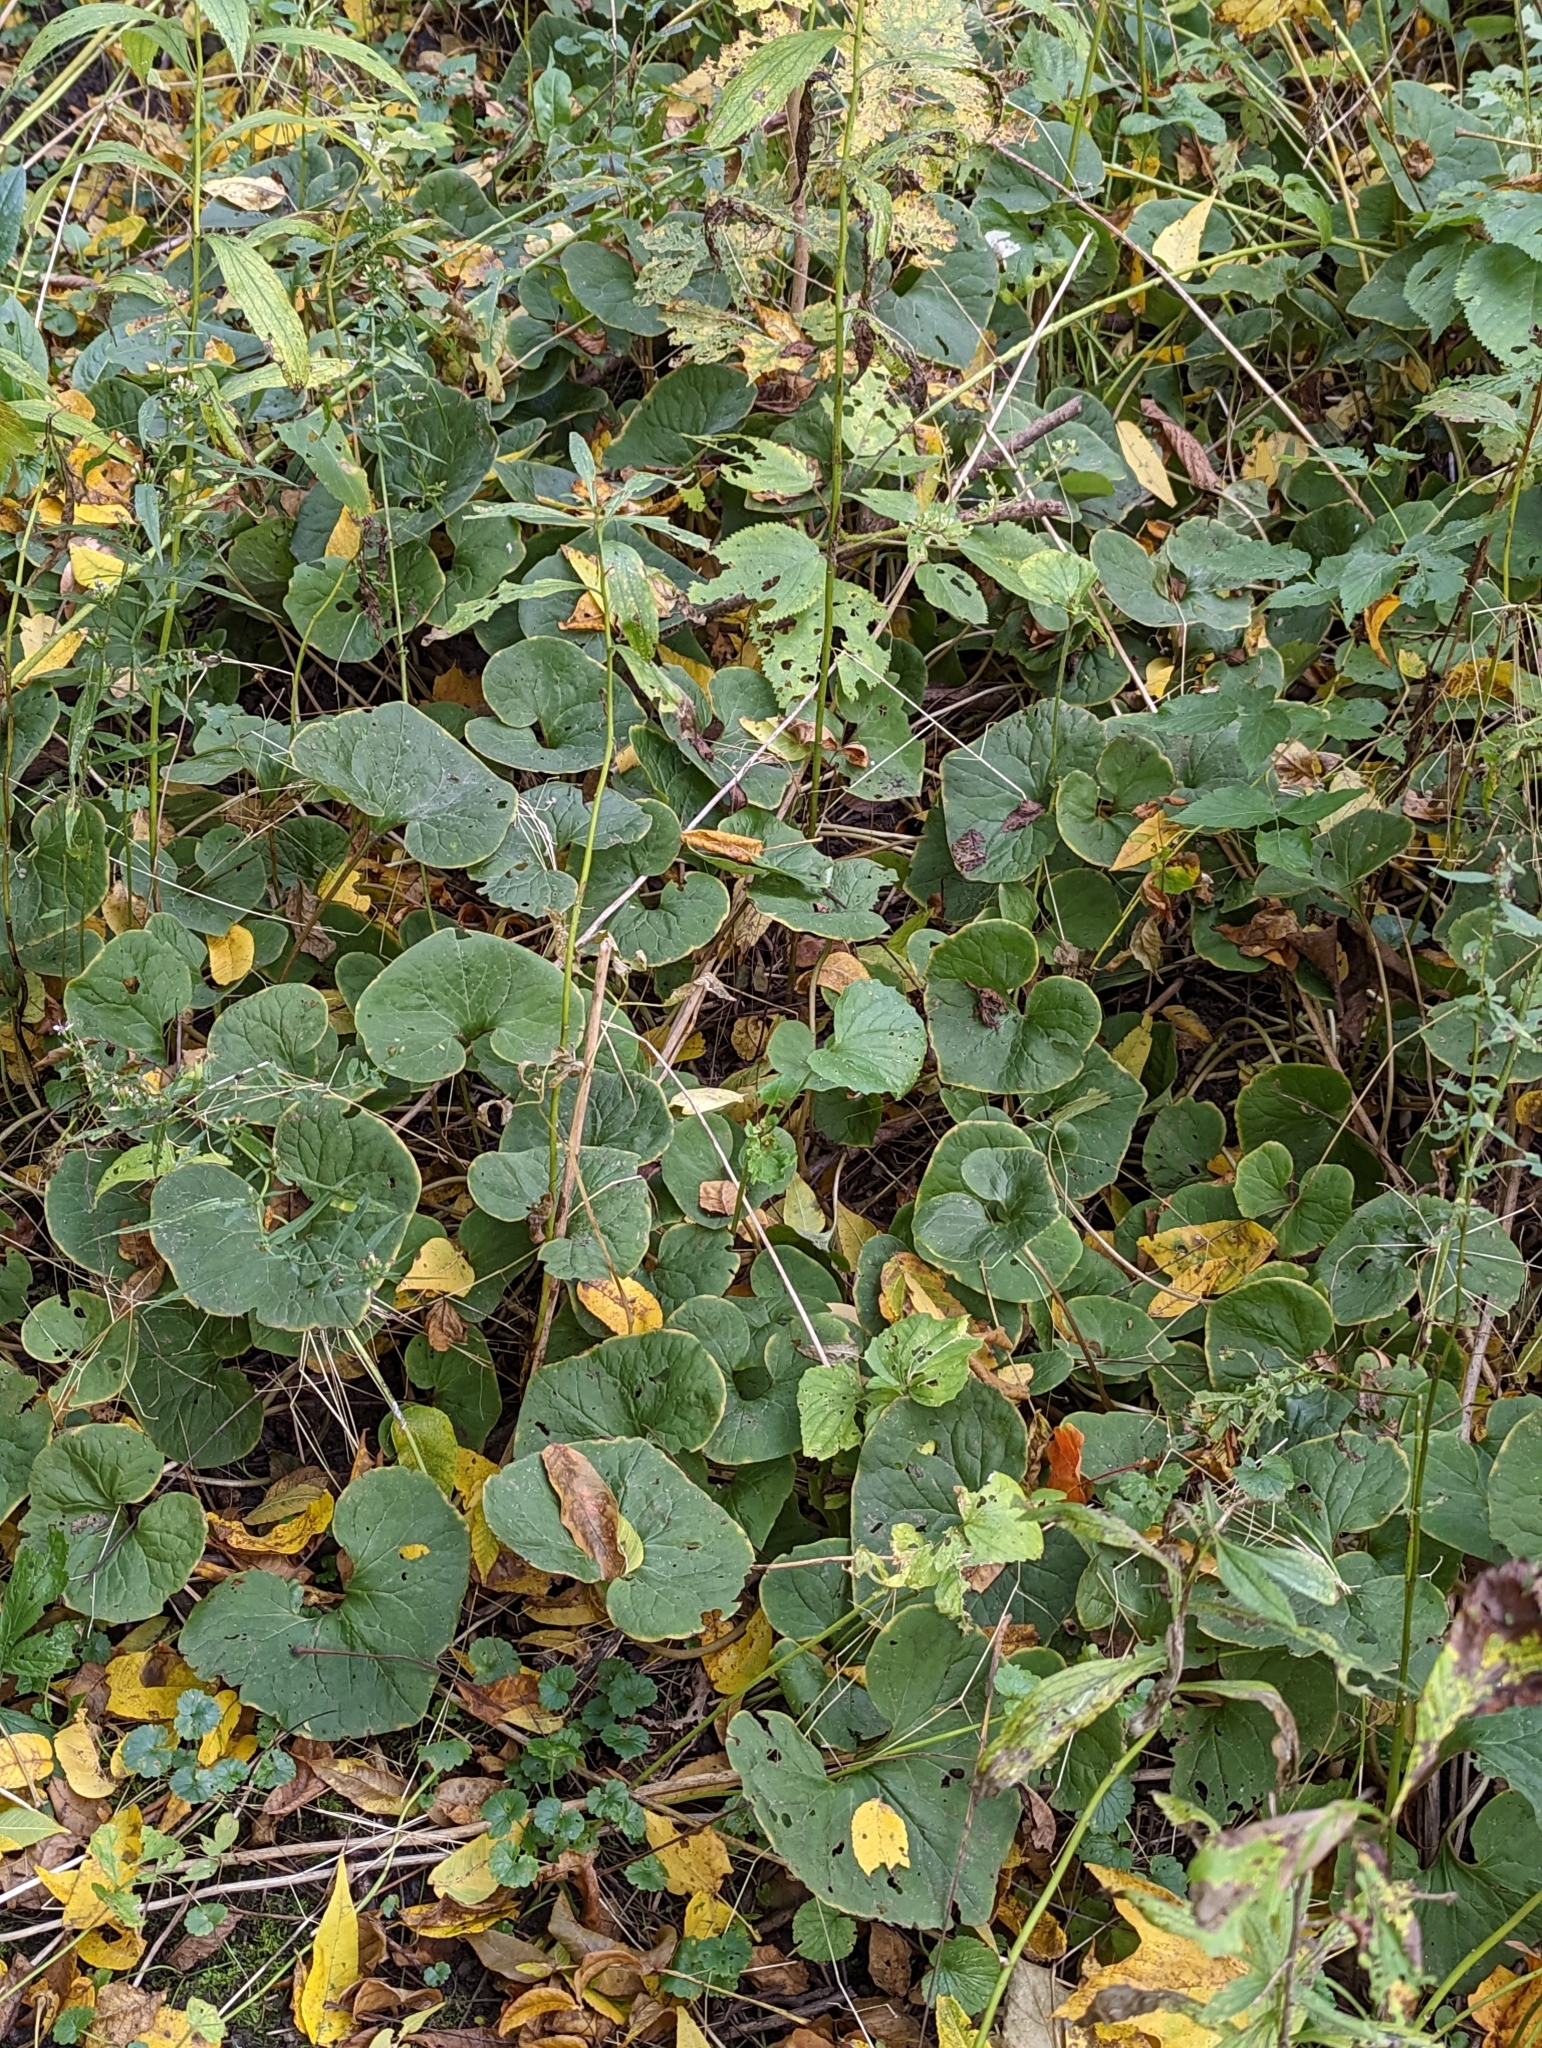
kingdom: Plantae
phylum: Tracheophyta
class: Magnoliopsida
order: Piperales
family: Aristolochiaceae
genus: Asarum
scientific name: Asarum canadense
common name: Wild ginger
